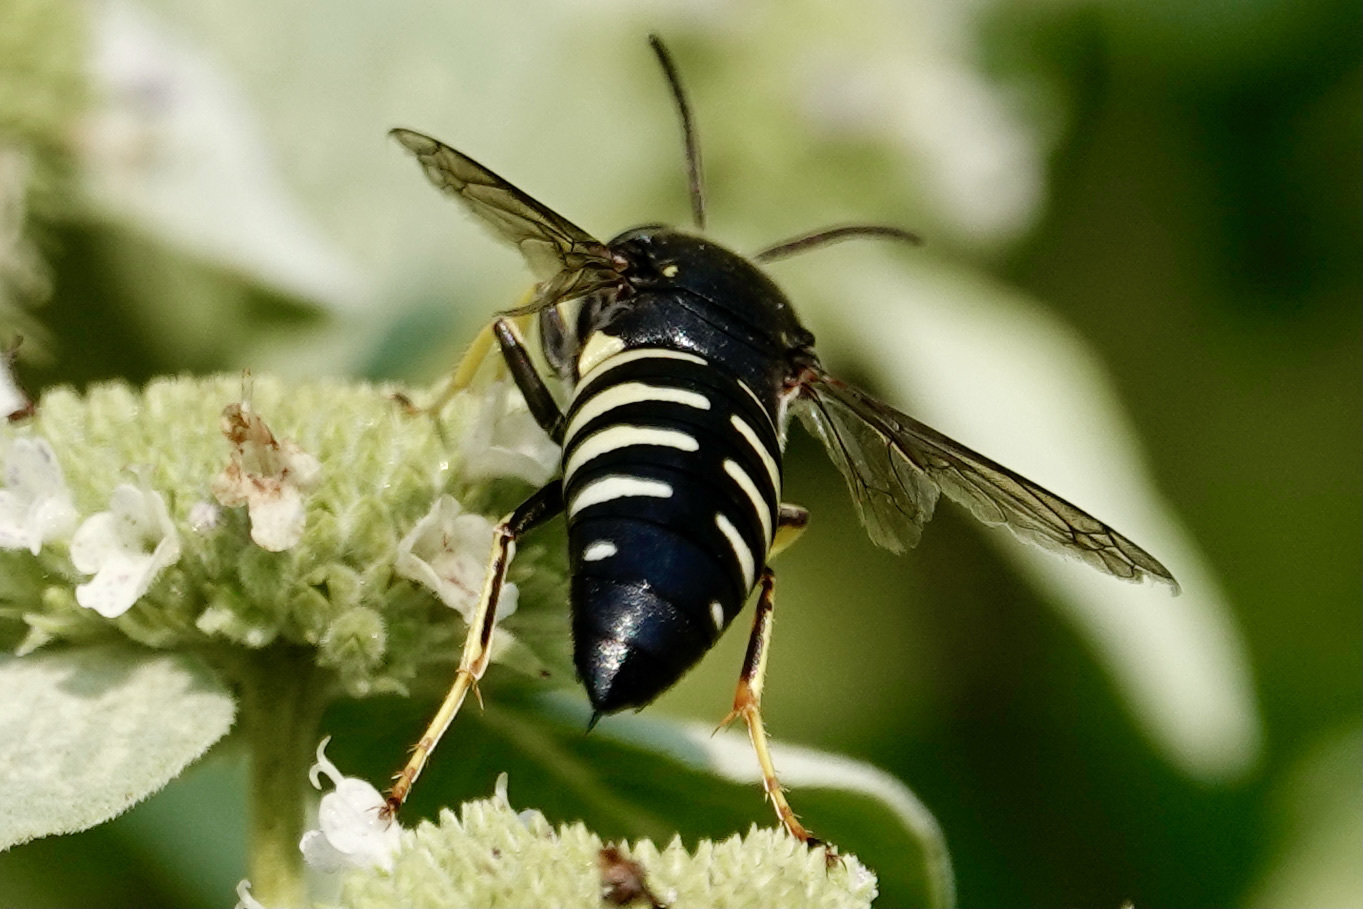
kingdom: Animalia
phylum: Arthropoda
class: Insecta
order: Hymenoptera
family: Crabronidae
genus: Bicyrtes
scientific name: Bicyrtes quadrifasciatus
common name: Four-banded stink bug hunter wasp
